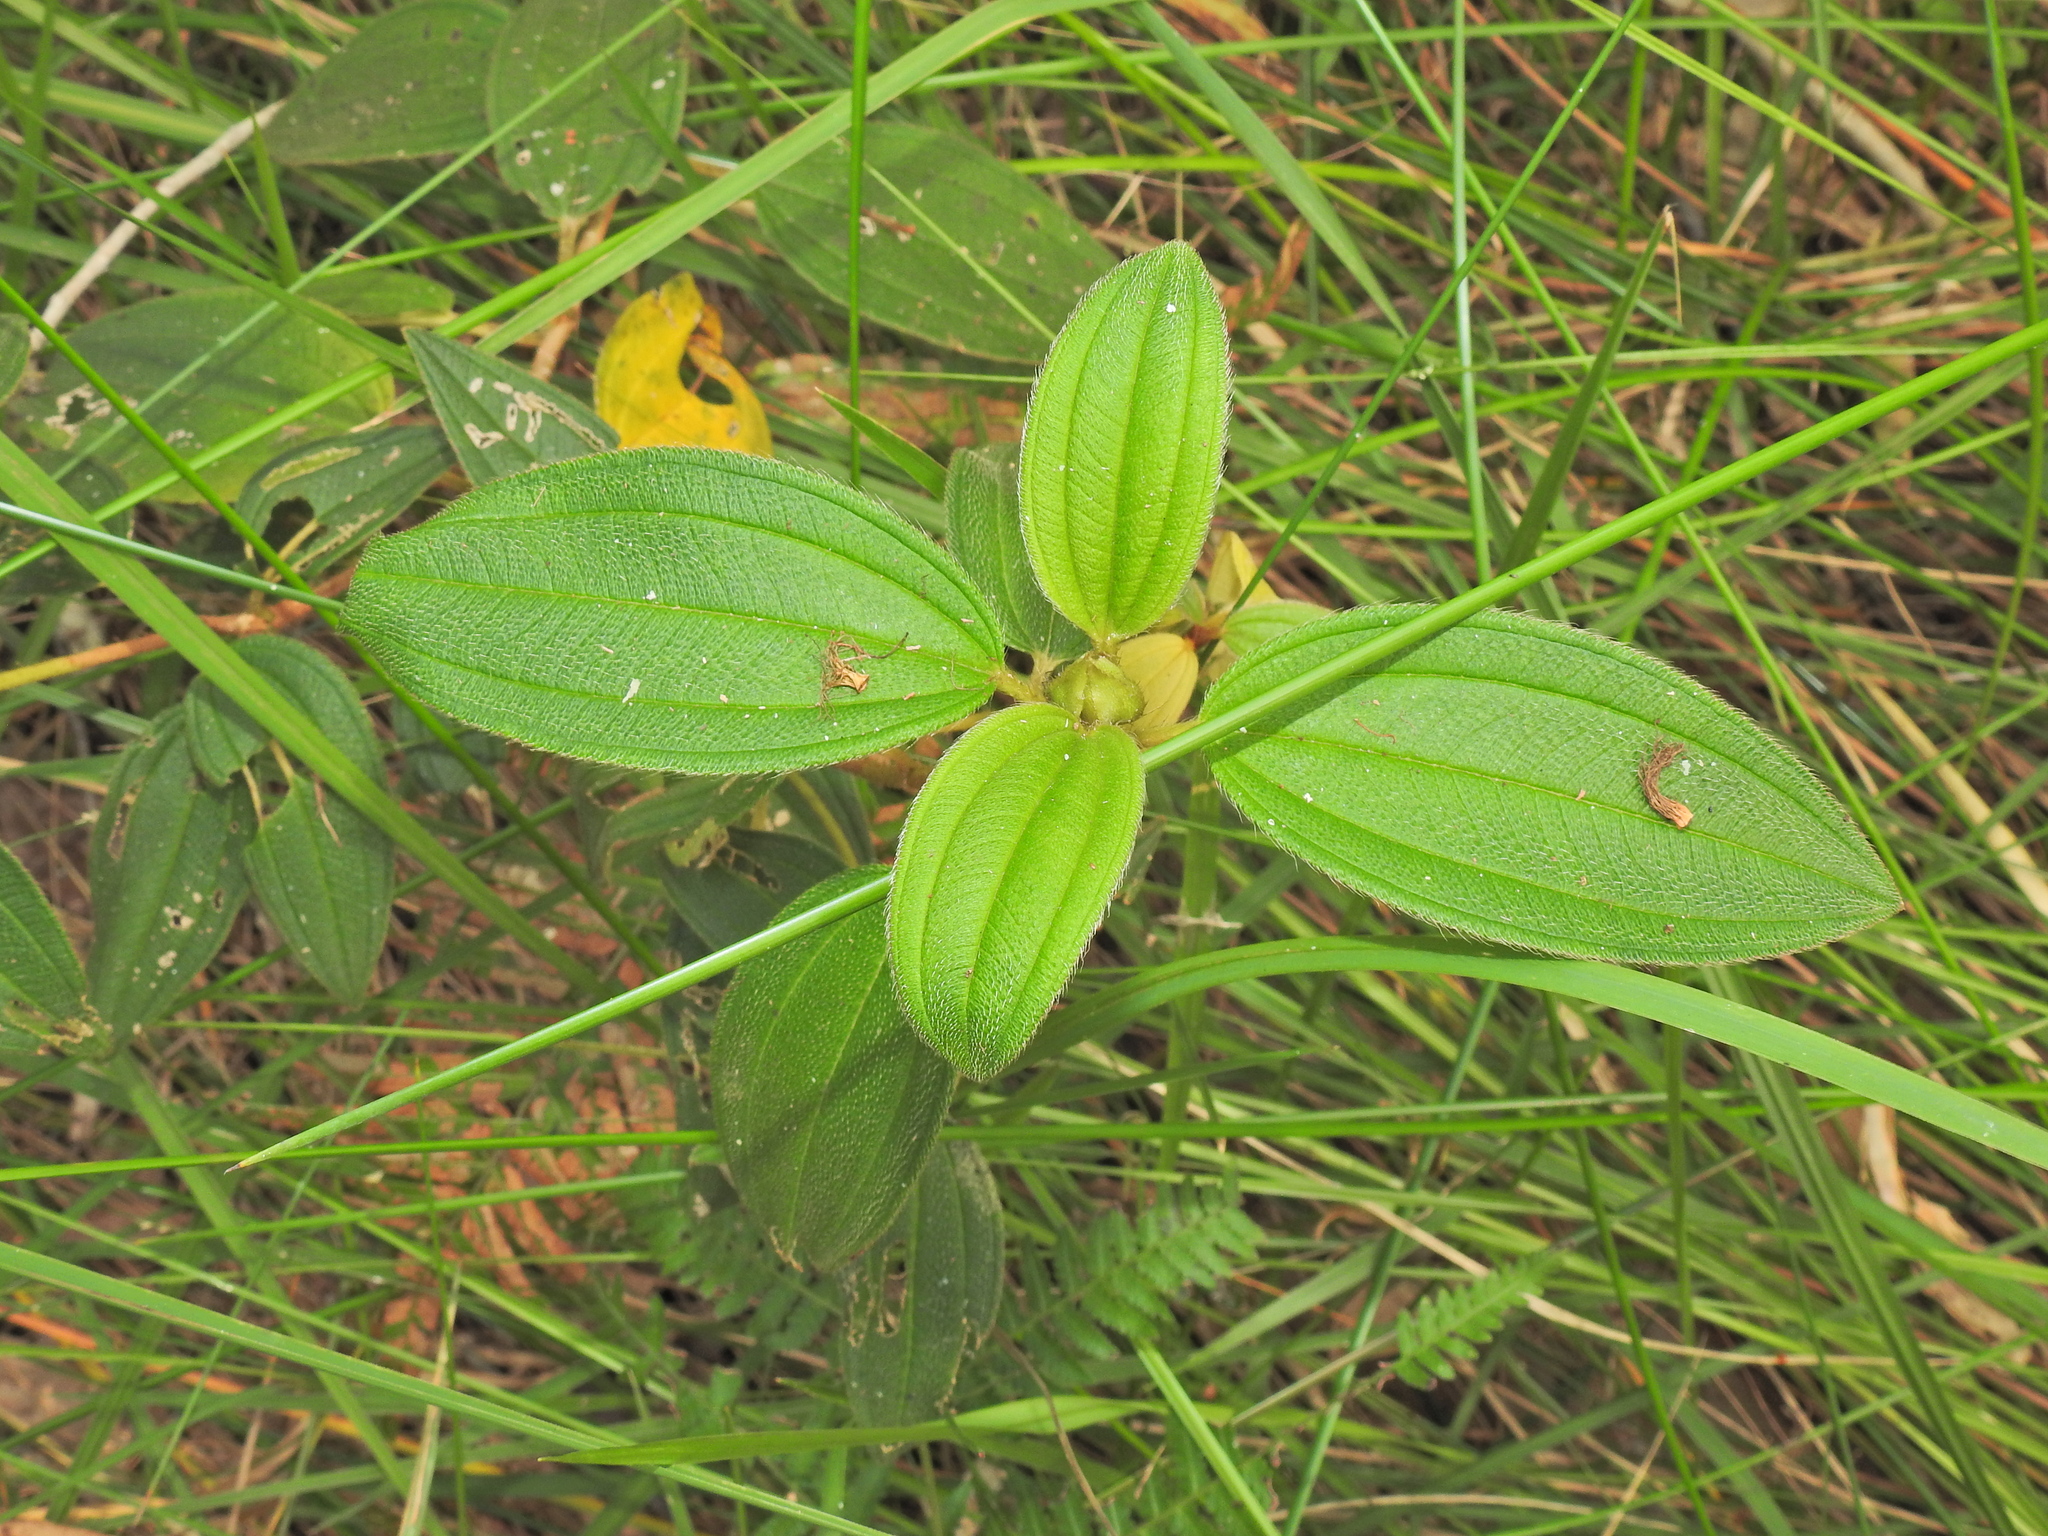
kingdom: Plantae
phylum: Tracheophyta
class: Magnoliopsida
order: Myrtales
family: Melastomataceae
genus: Melastoma
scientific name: Melastoma malabathricum
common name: Indian-rhododendron
